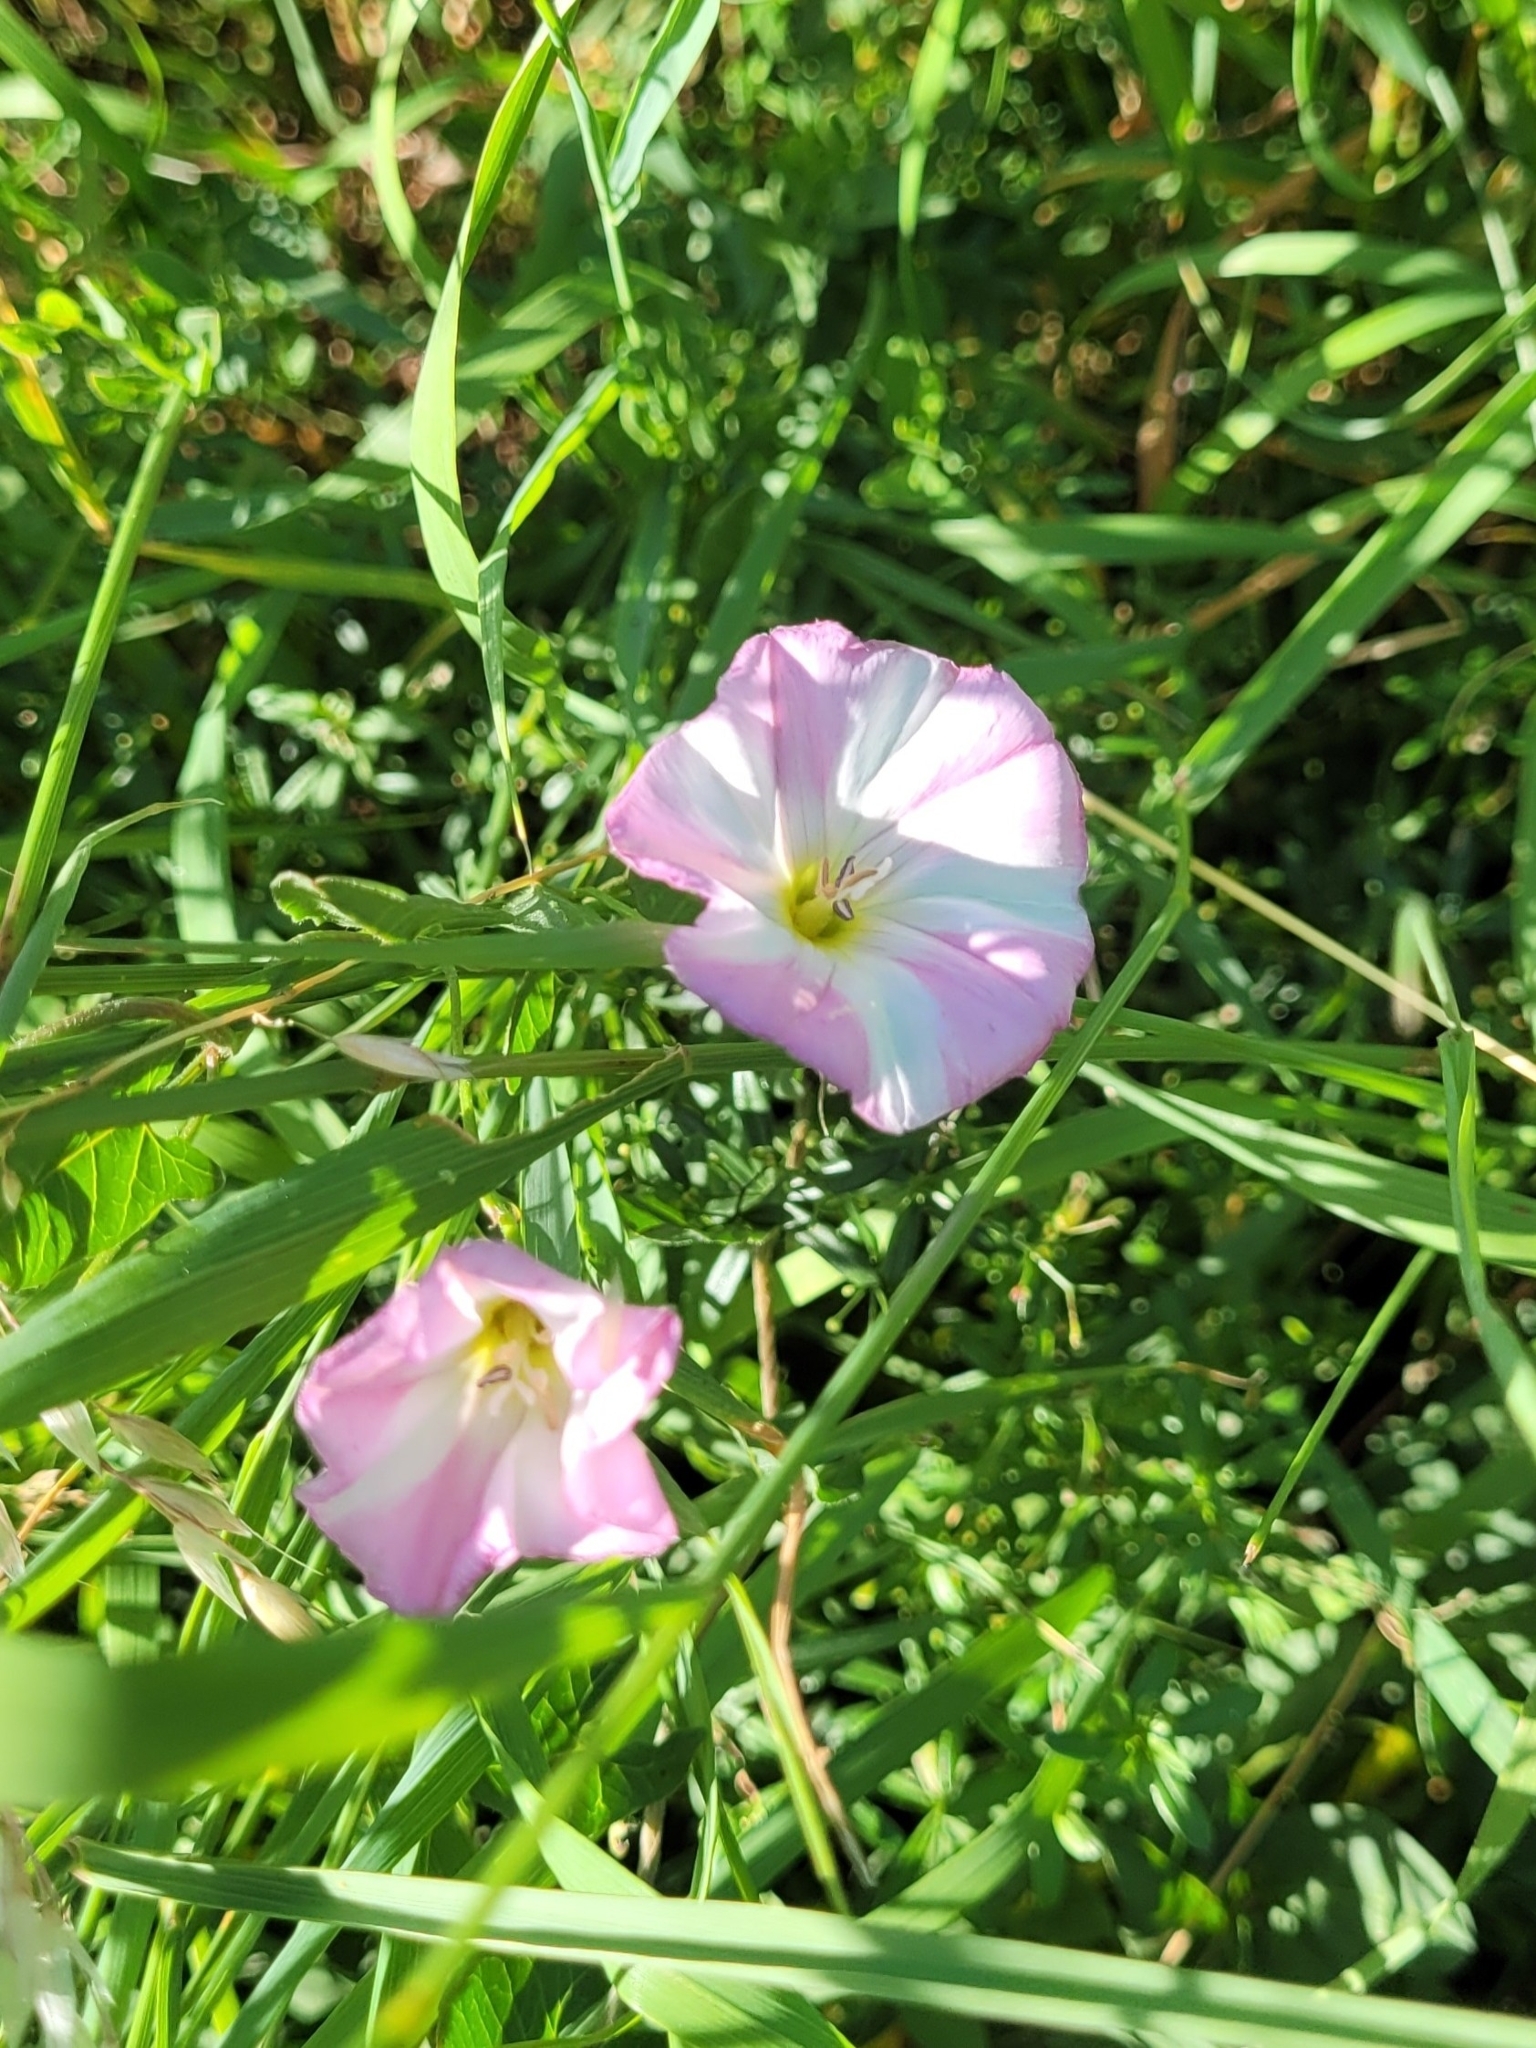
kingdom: Plantae
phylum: Tracheophyta
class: Magnoliopsida
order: Solanales
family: Convolvulaceae
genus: Convolvulus
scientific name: Convolvulus arvensis
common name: Field bindweed
